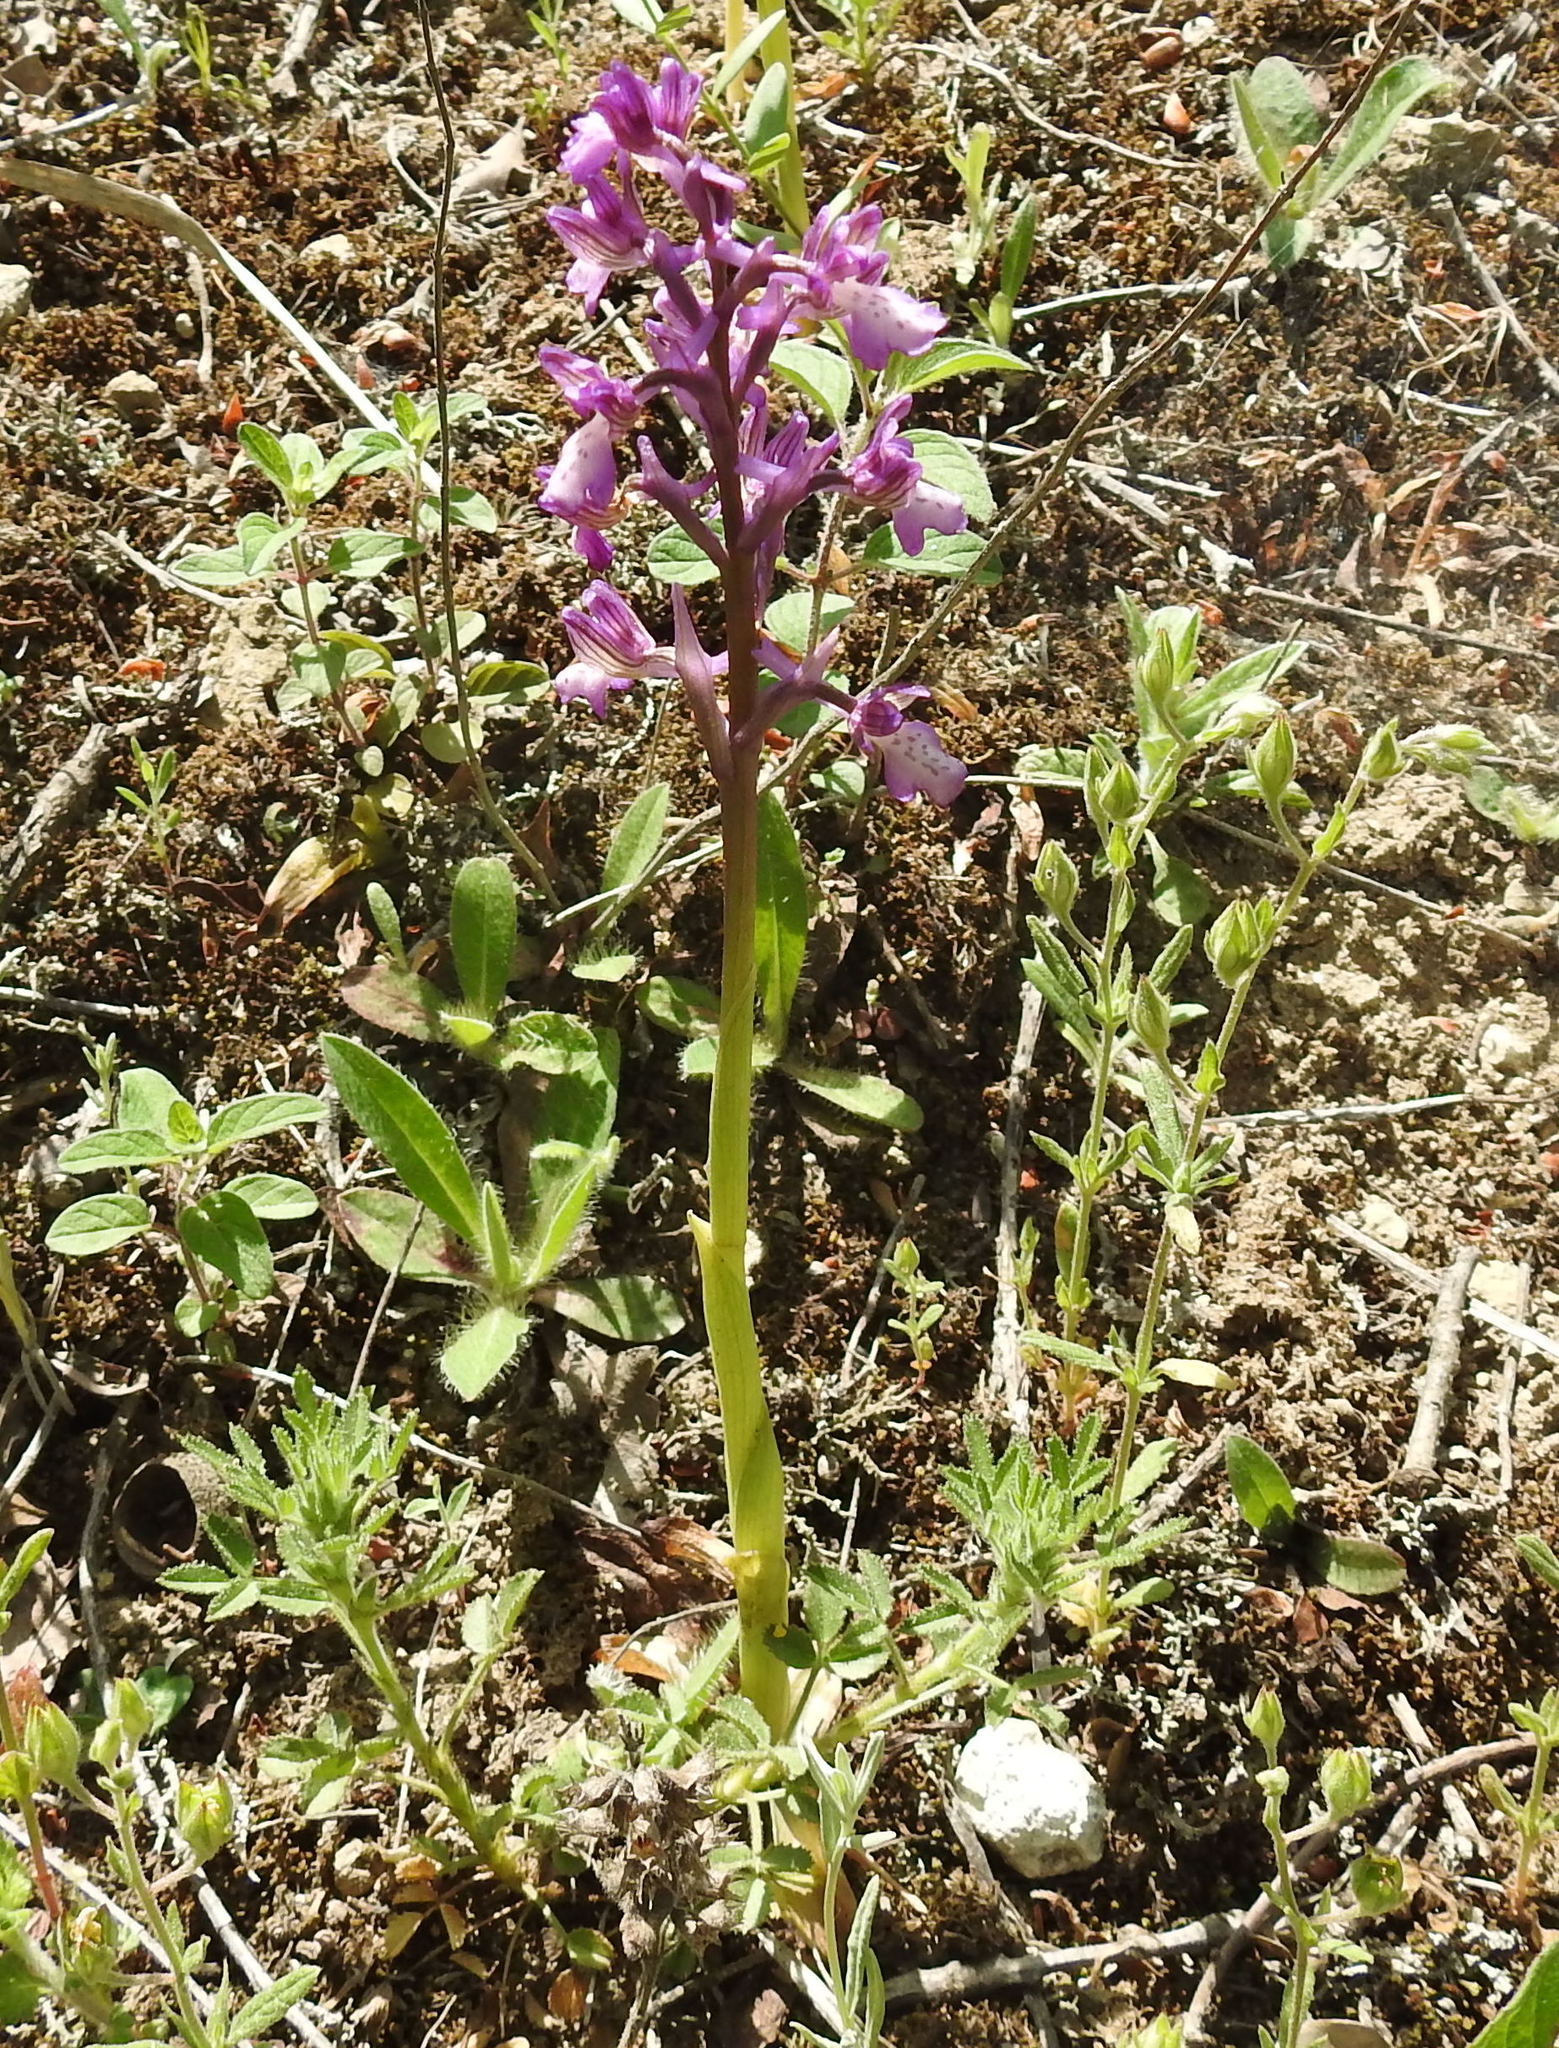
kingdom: Plantae
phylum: Tracheophyta
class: Liliopsida
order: Asparagales
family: Orchidaceae
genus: Anacamptis
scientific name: Anacamptis morio
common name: Green-winged orchid
